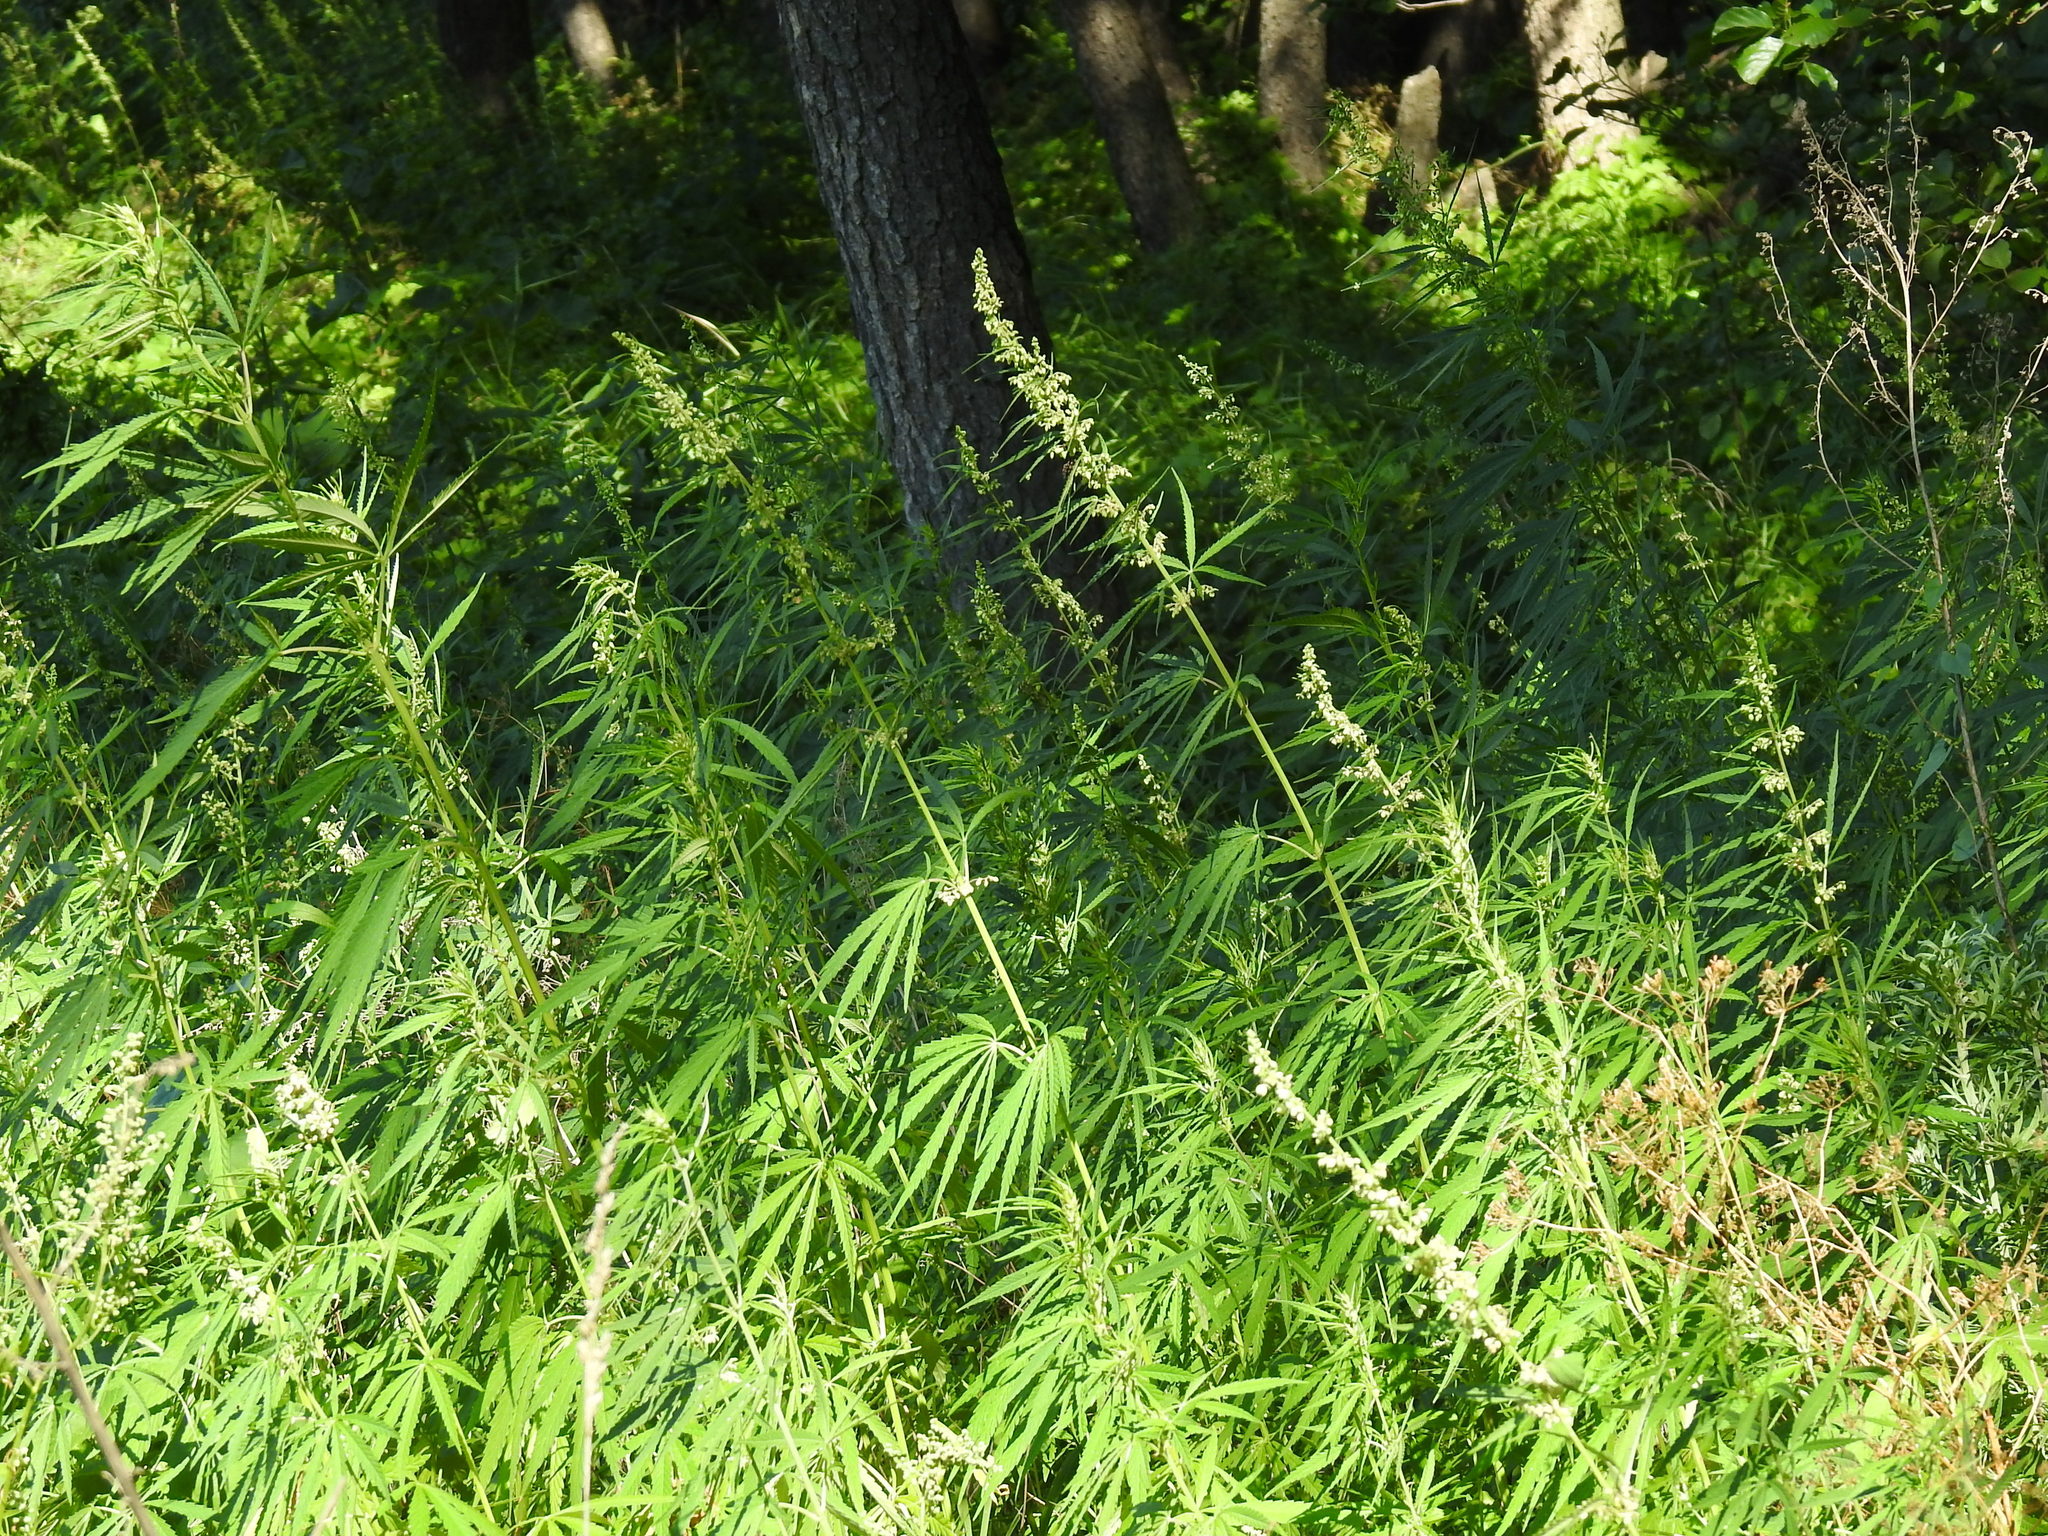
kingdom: Plantae
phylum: Tracheophyta
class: Magnoliopsida
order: Rosales
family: Cannabaceae
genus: Cannabis
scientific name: Cannabis sativa
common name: Hemp
